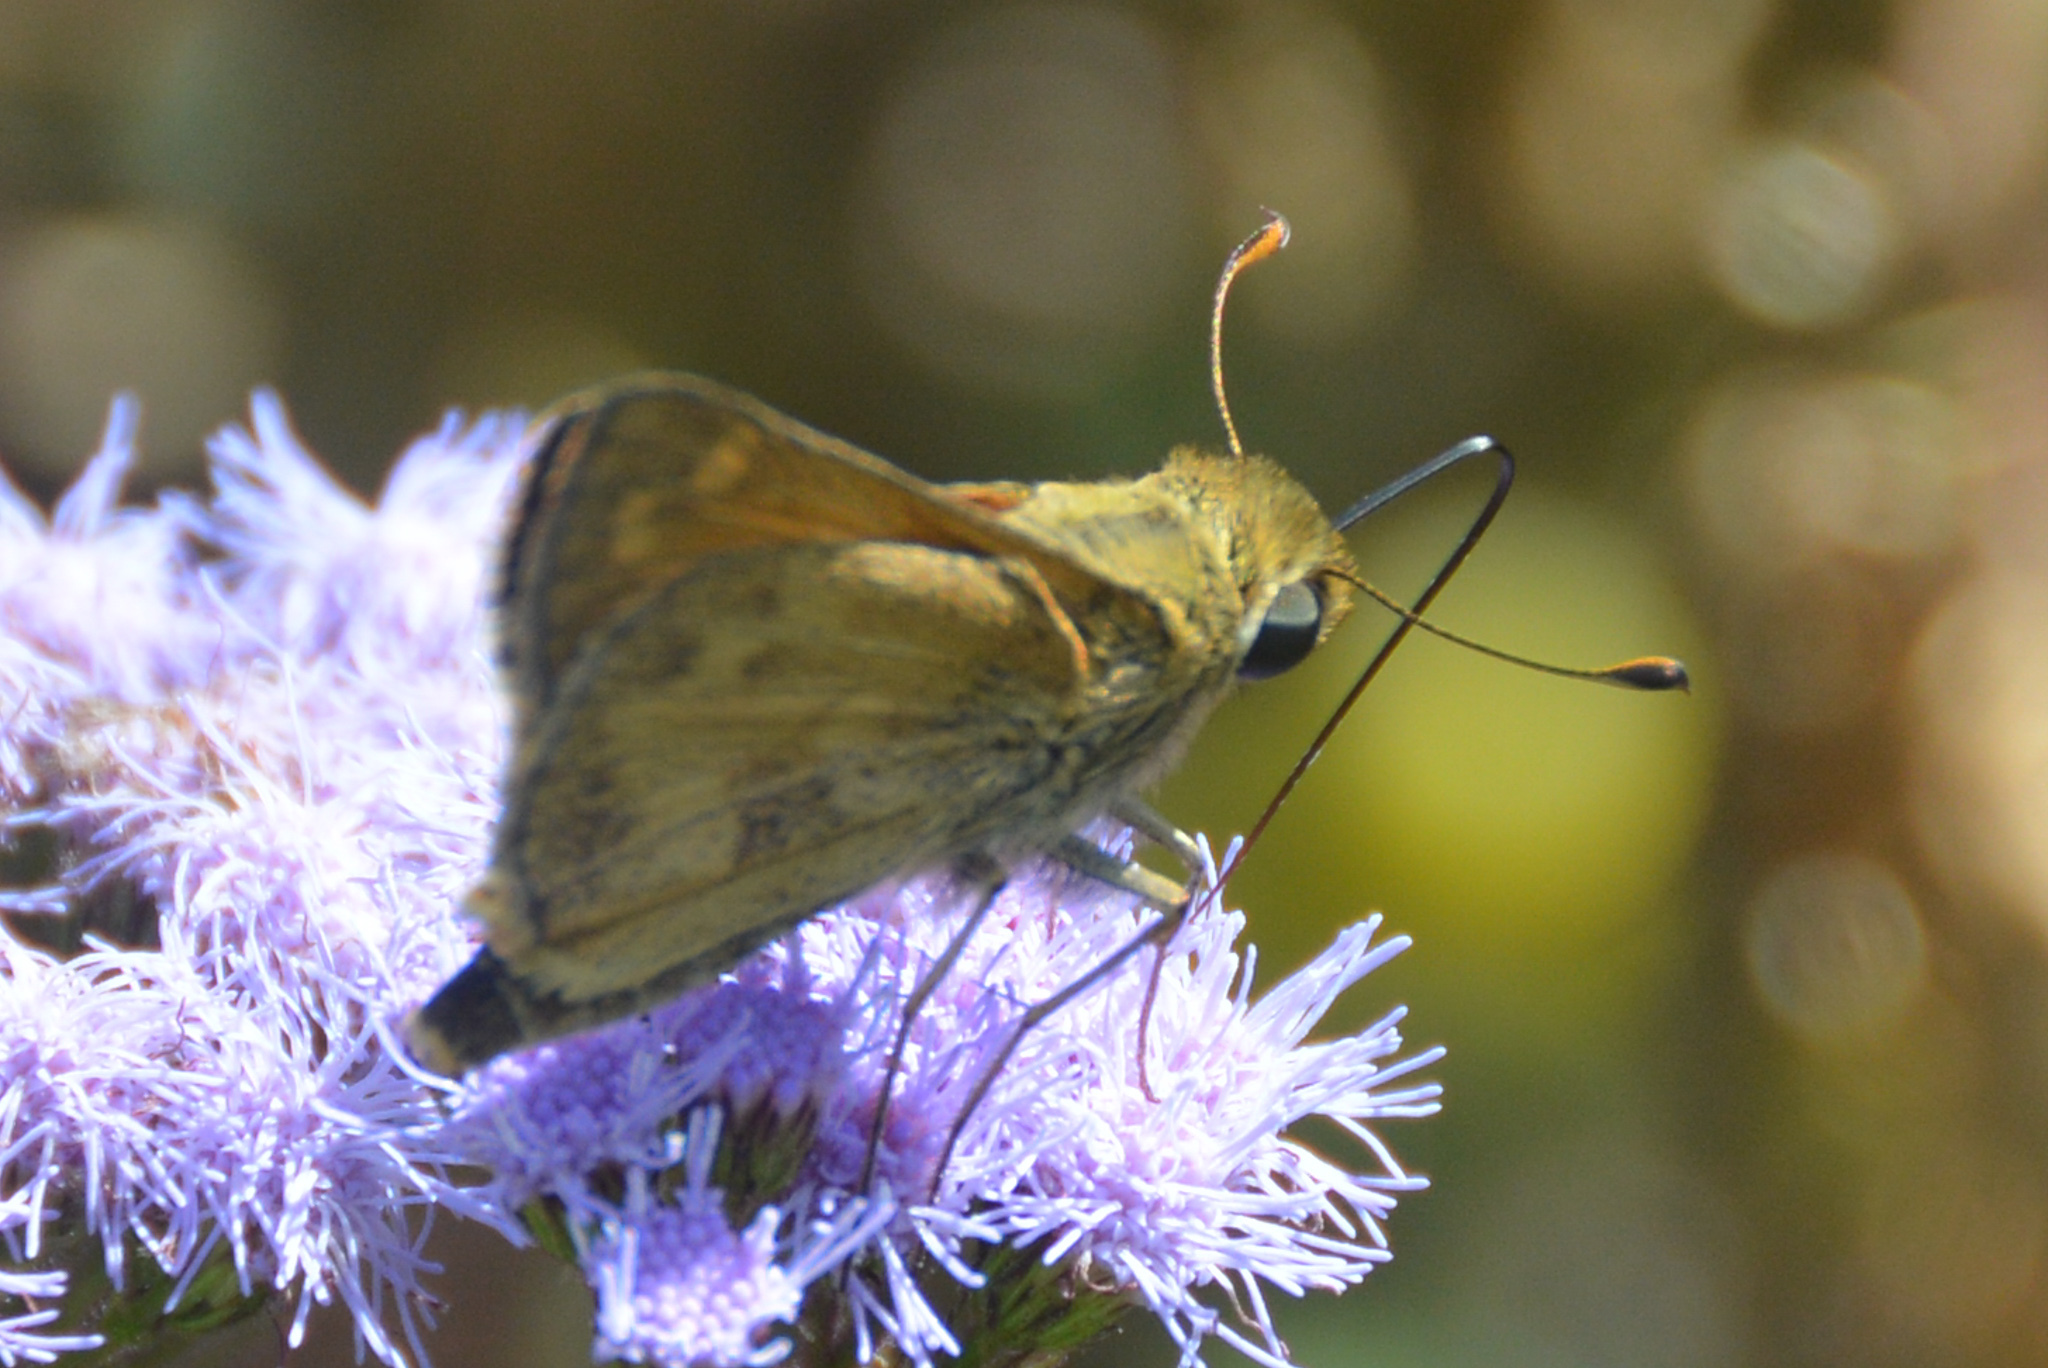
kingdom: Animalia
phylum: Arthropoda
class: Insecta
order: Lepidoptera
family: Hesperiidae
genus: Atalopedes
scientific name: Atalopedes
